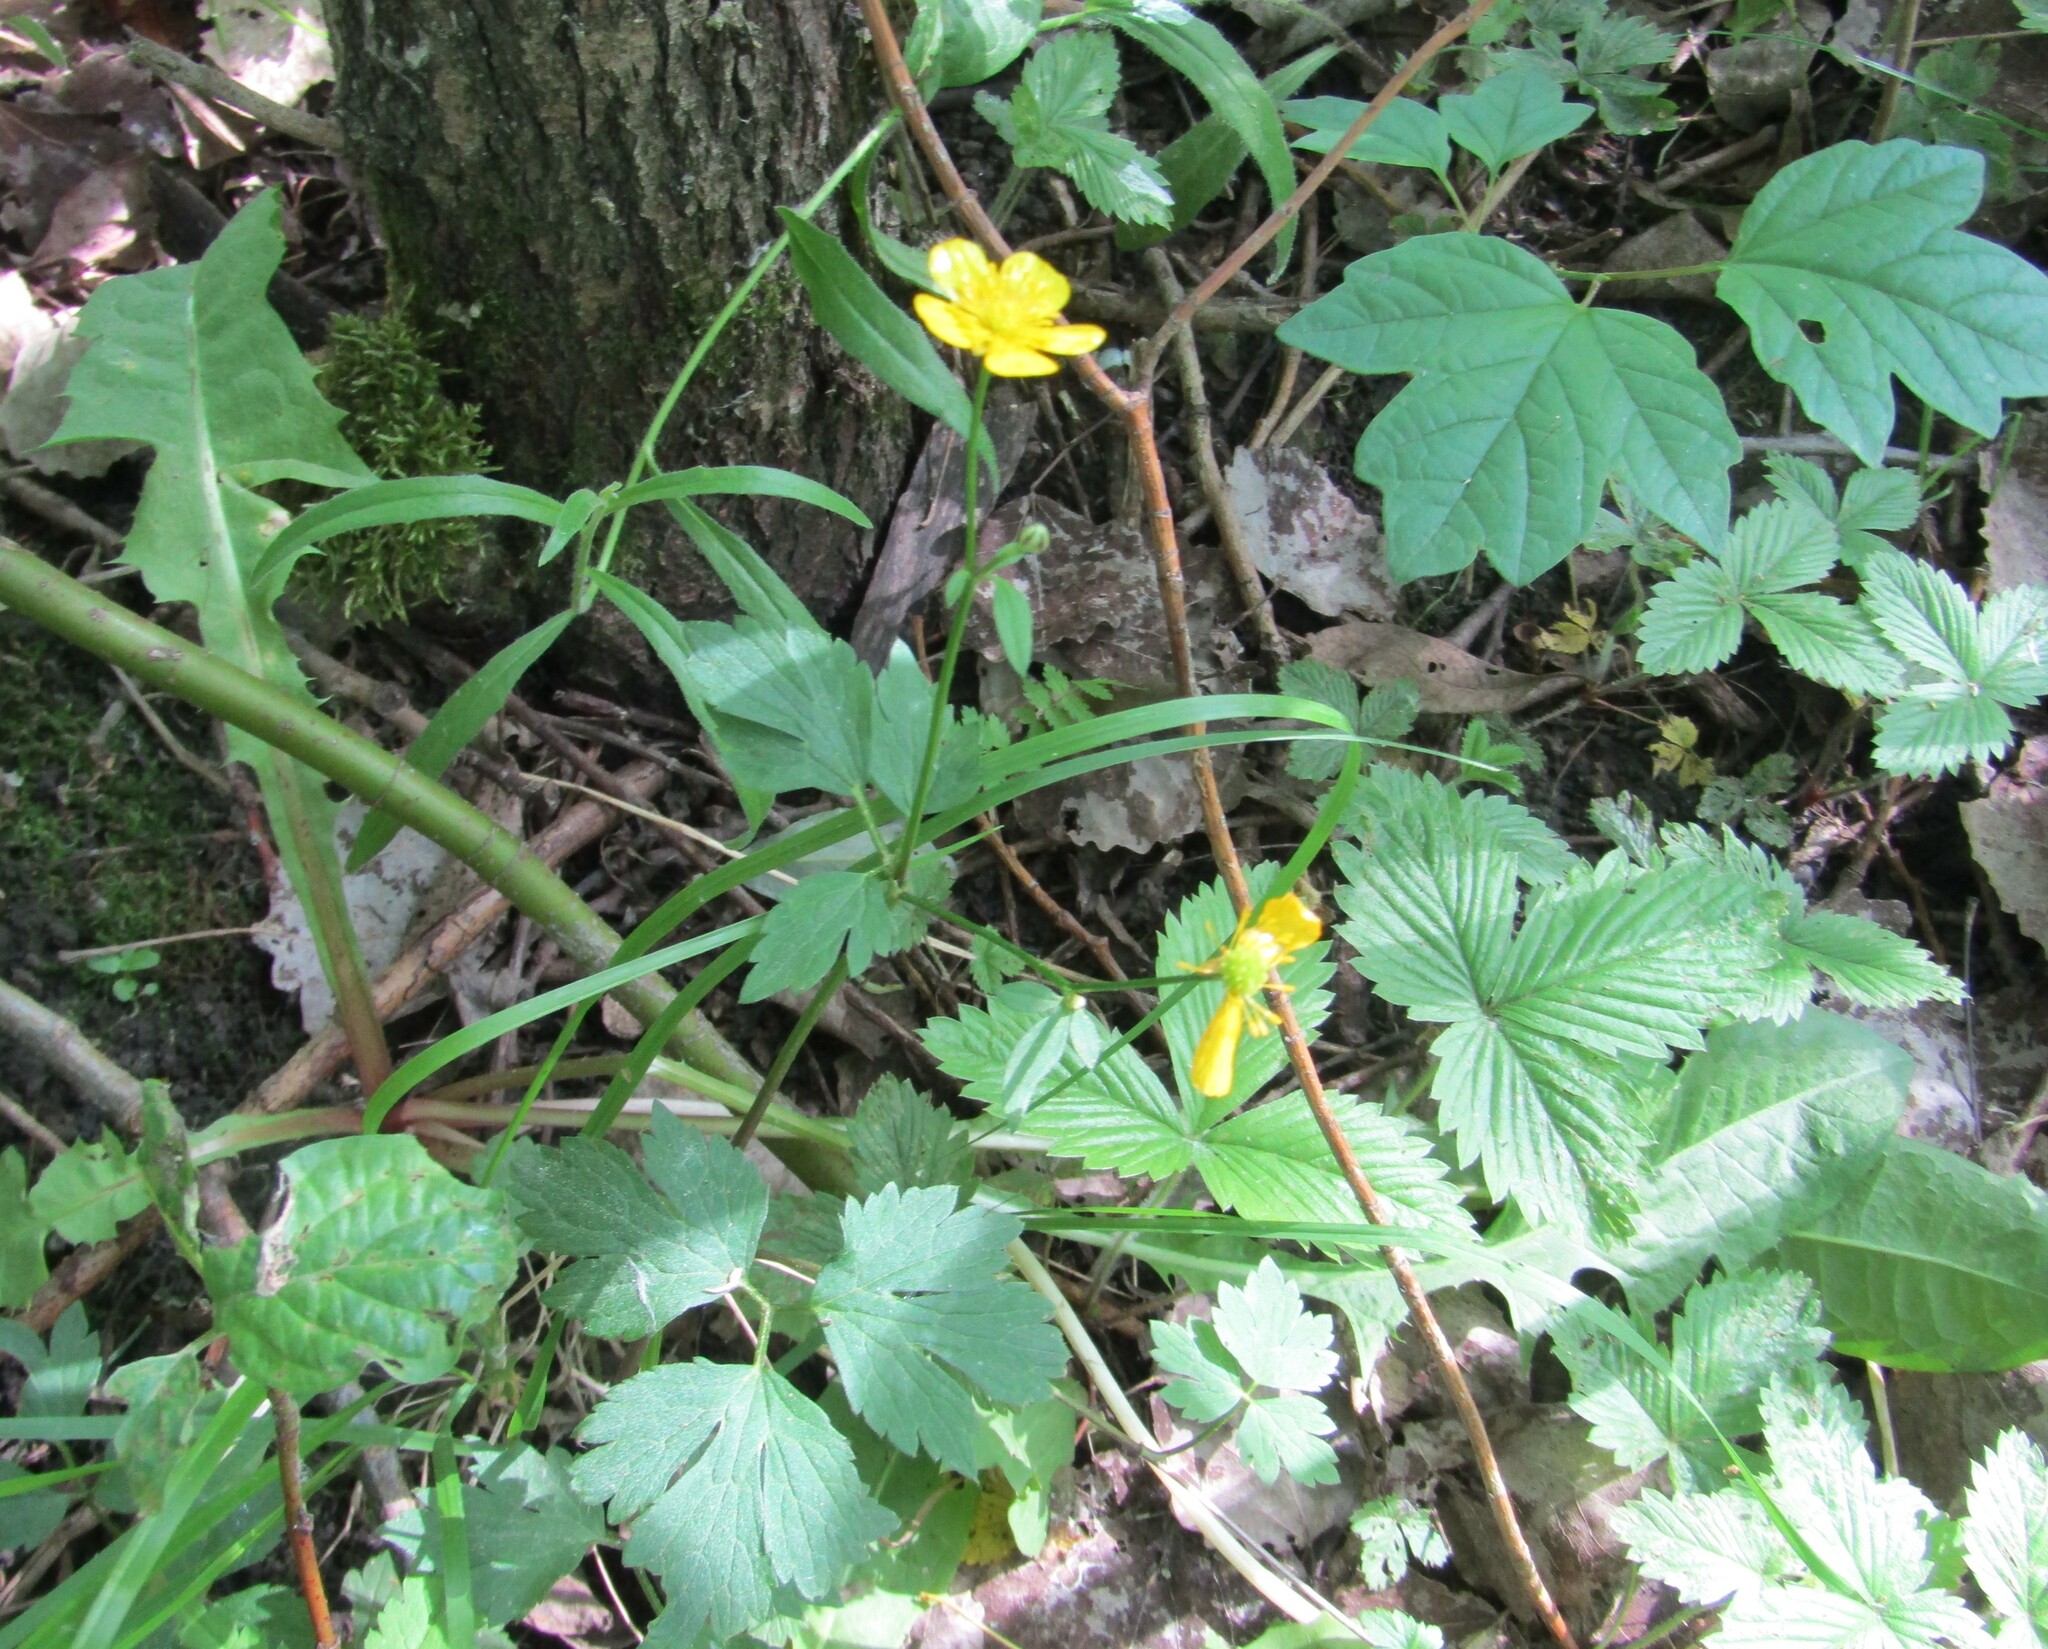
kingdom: Plantae
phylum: Tracheophyta
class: Magnoliopsida
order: Ranunculales
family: Ranunculaceae
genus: Ranunculus
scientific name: Ranunculus repens
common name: Creeping buttercup
